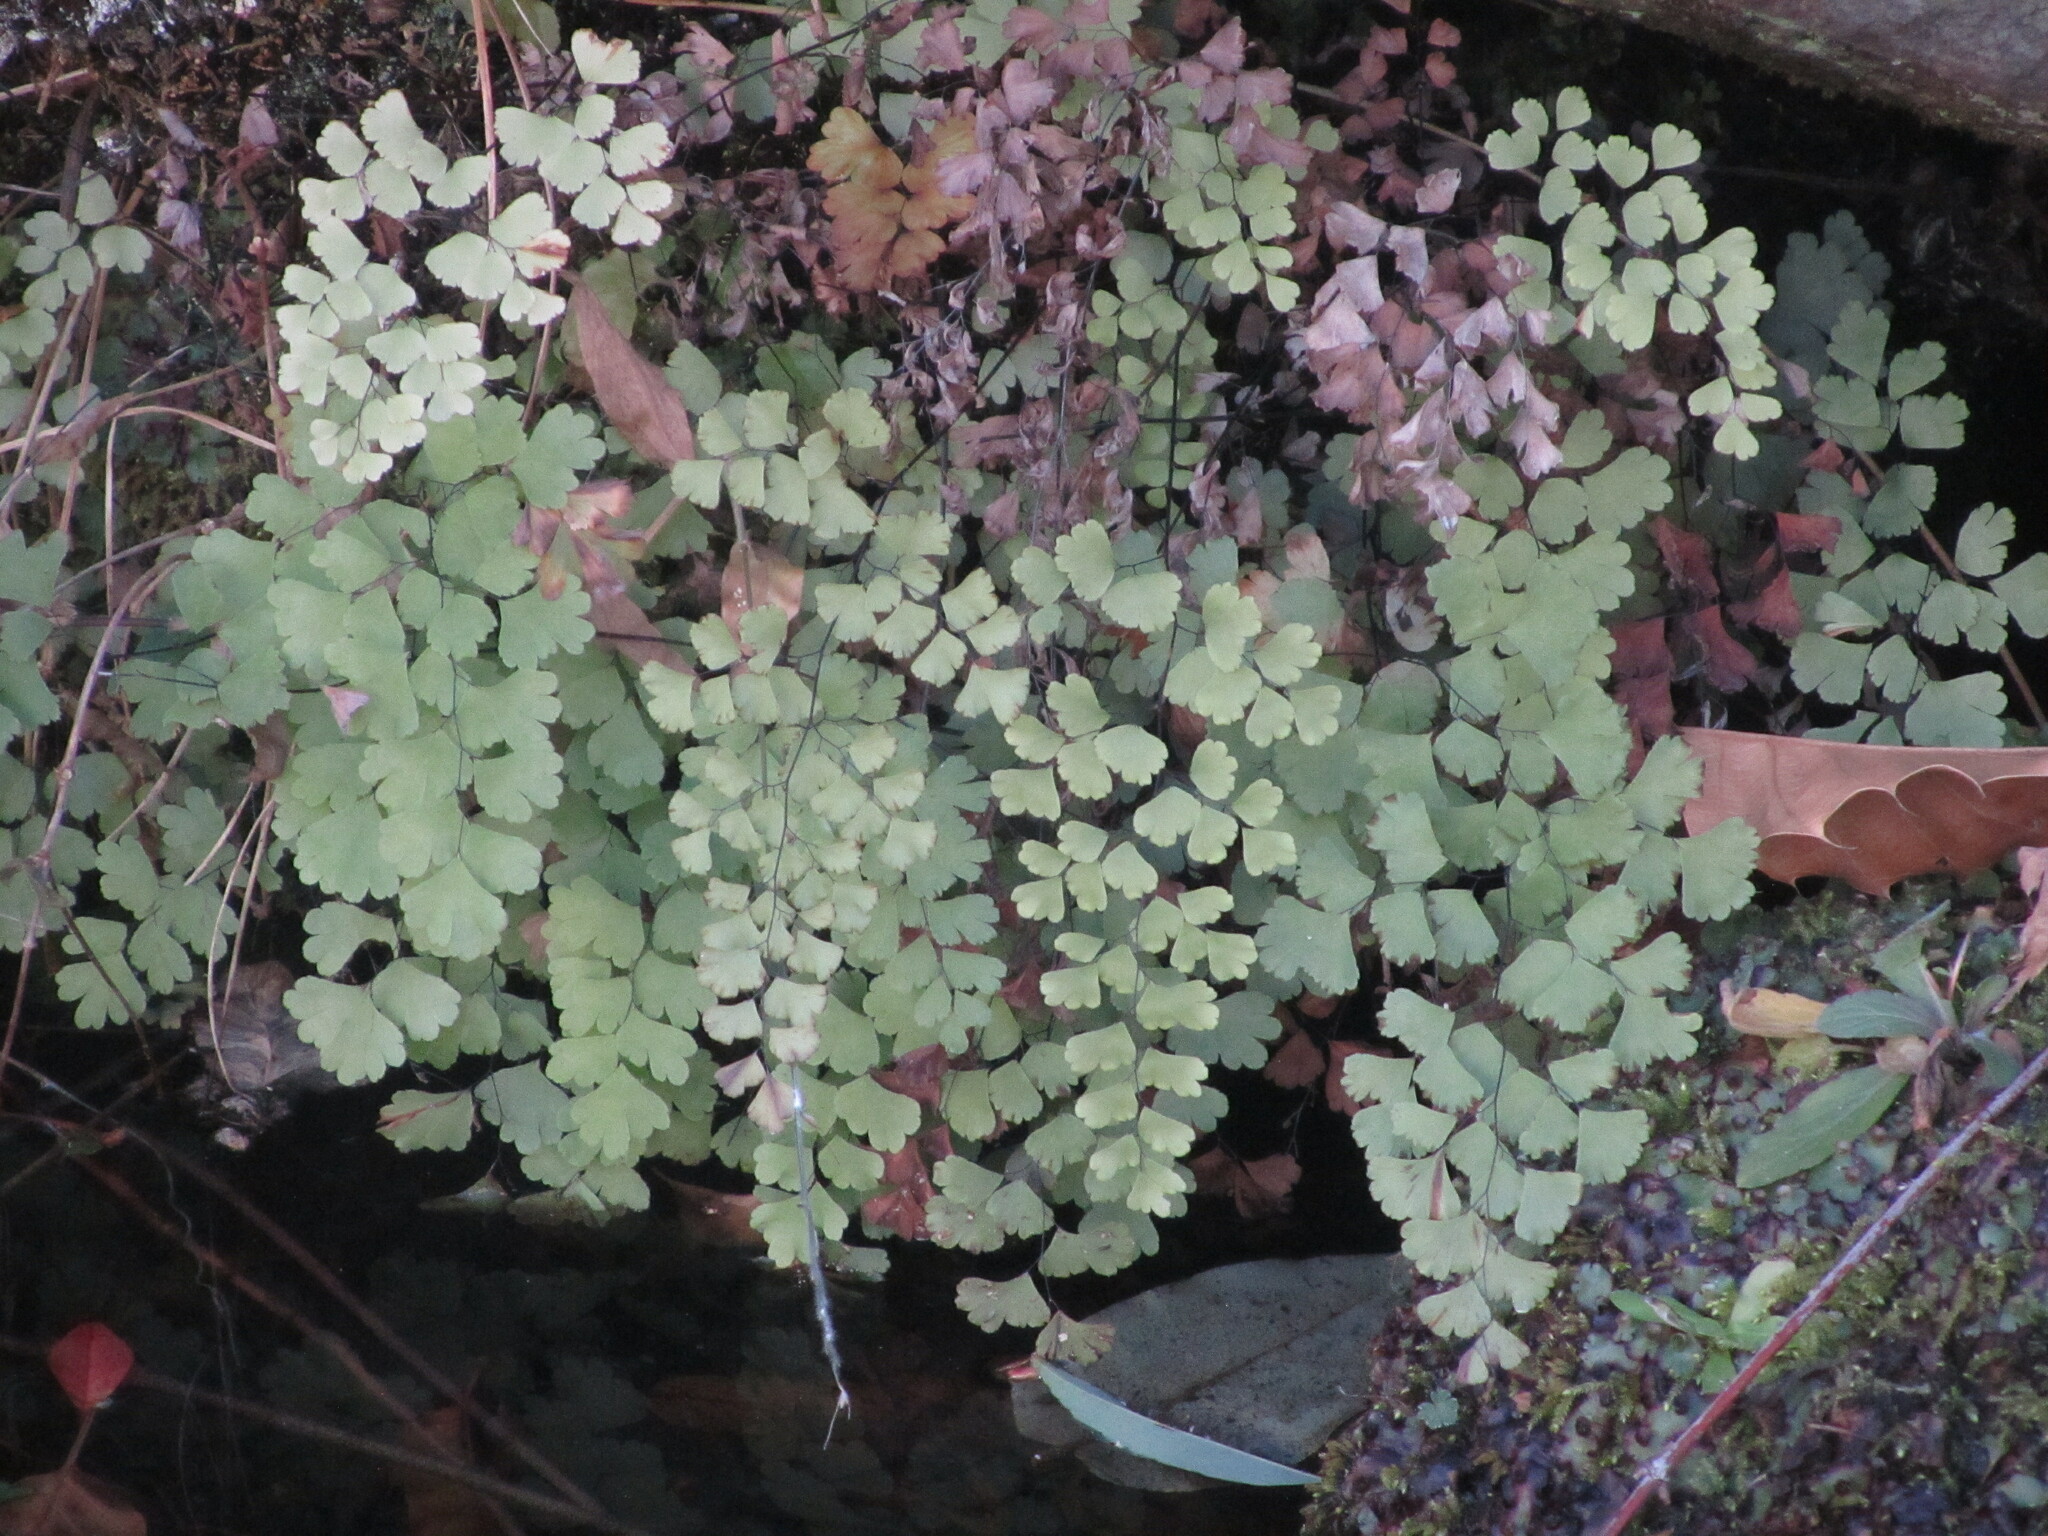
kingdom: Plantae
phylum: Tracheophyta
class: Polypodiopsida
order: Polypodiales
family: Pteridaceae
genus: Adiantum
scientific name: Adiantum capillus-veneris
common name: Maidenhair fern
